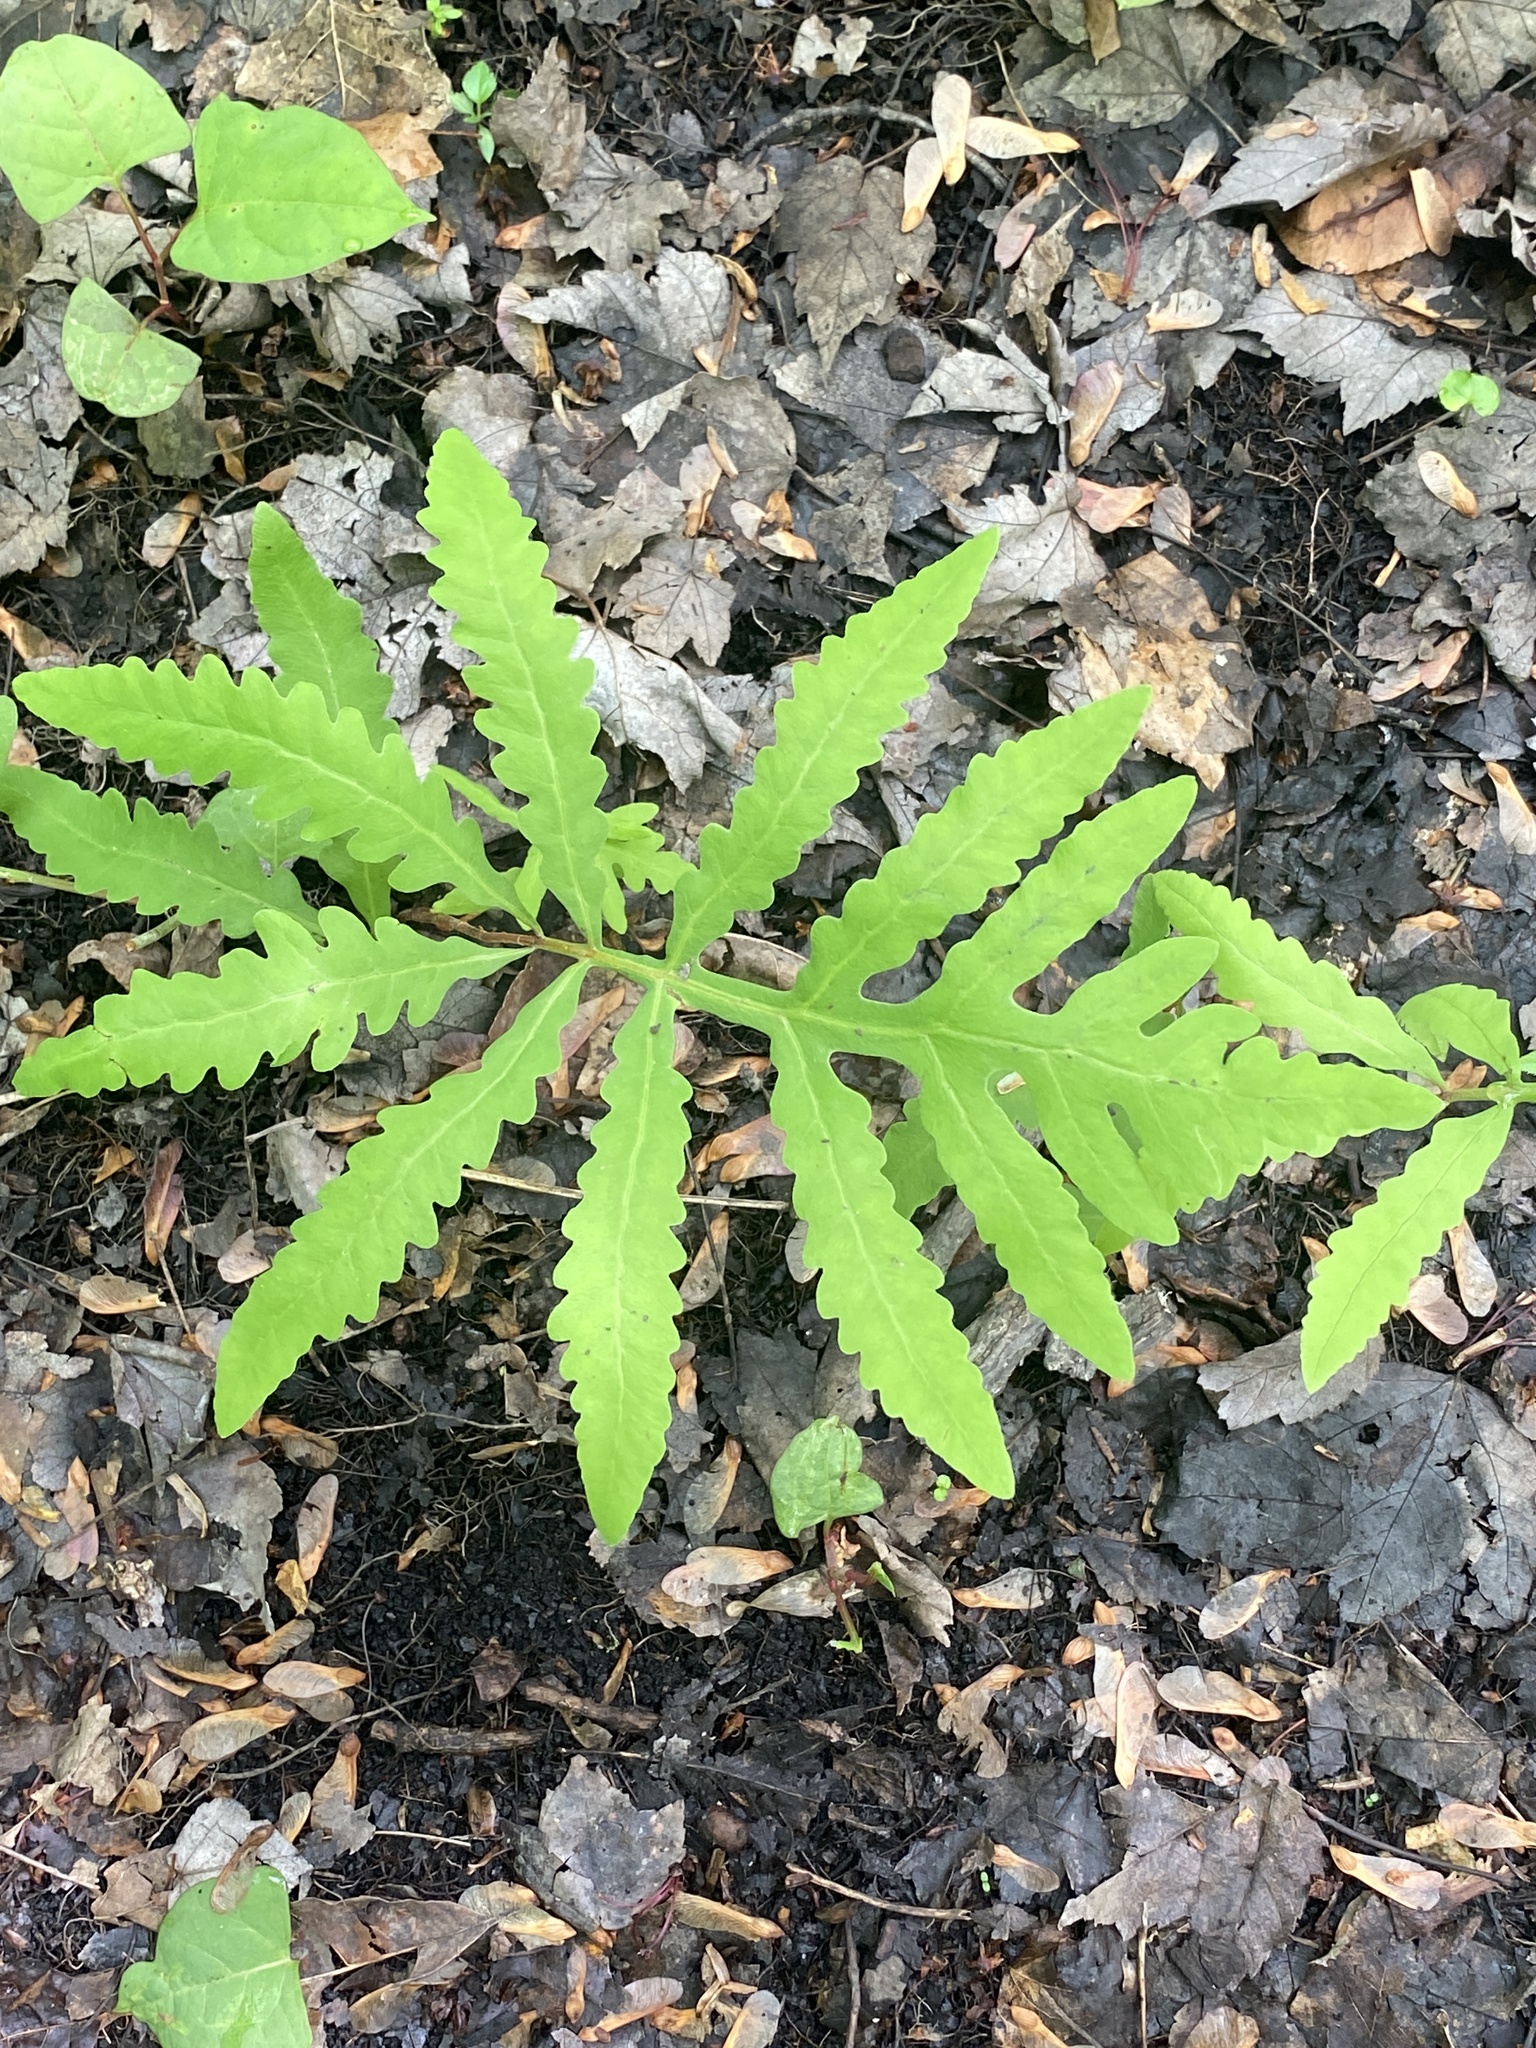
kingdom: Plantae
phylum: Tracheophyta
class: Polypodiopsida
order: Polypodiales
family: Onocleaceae
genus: Onoclea
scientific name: Onoclea sensibilis
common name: Sensitive fern
